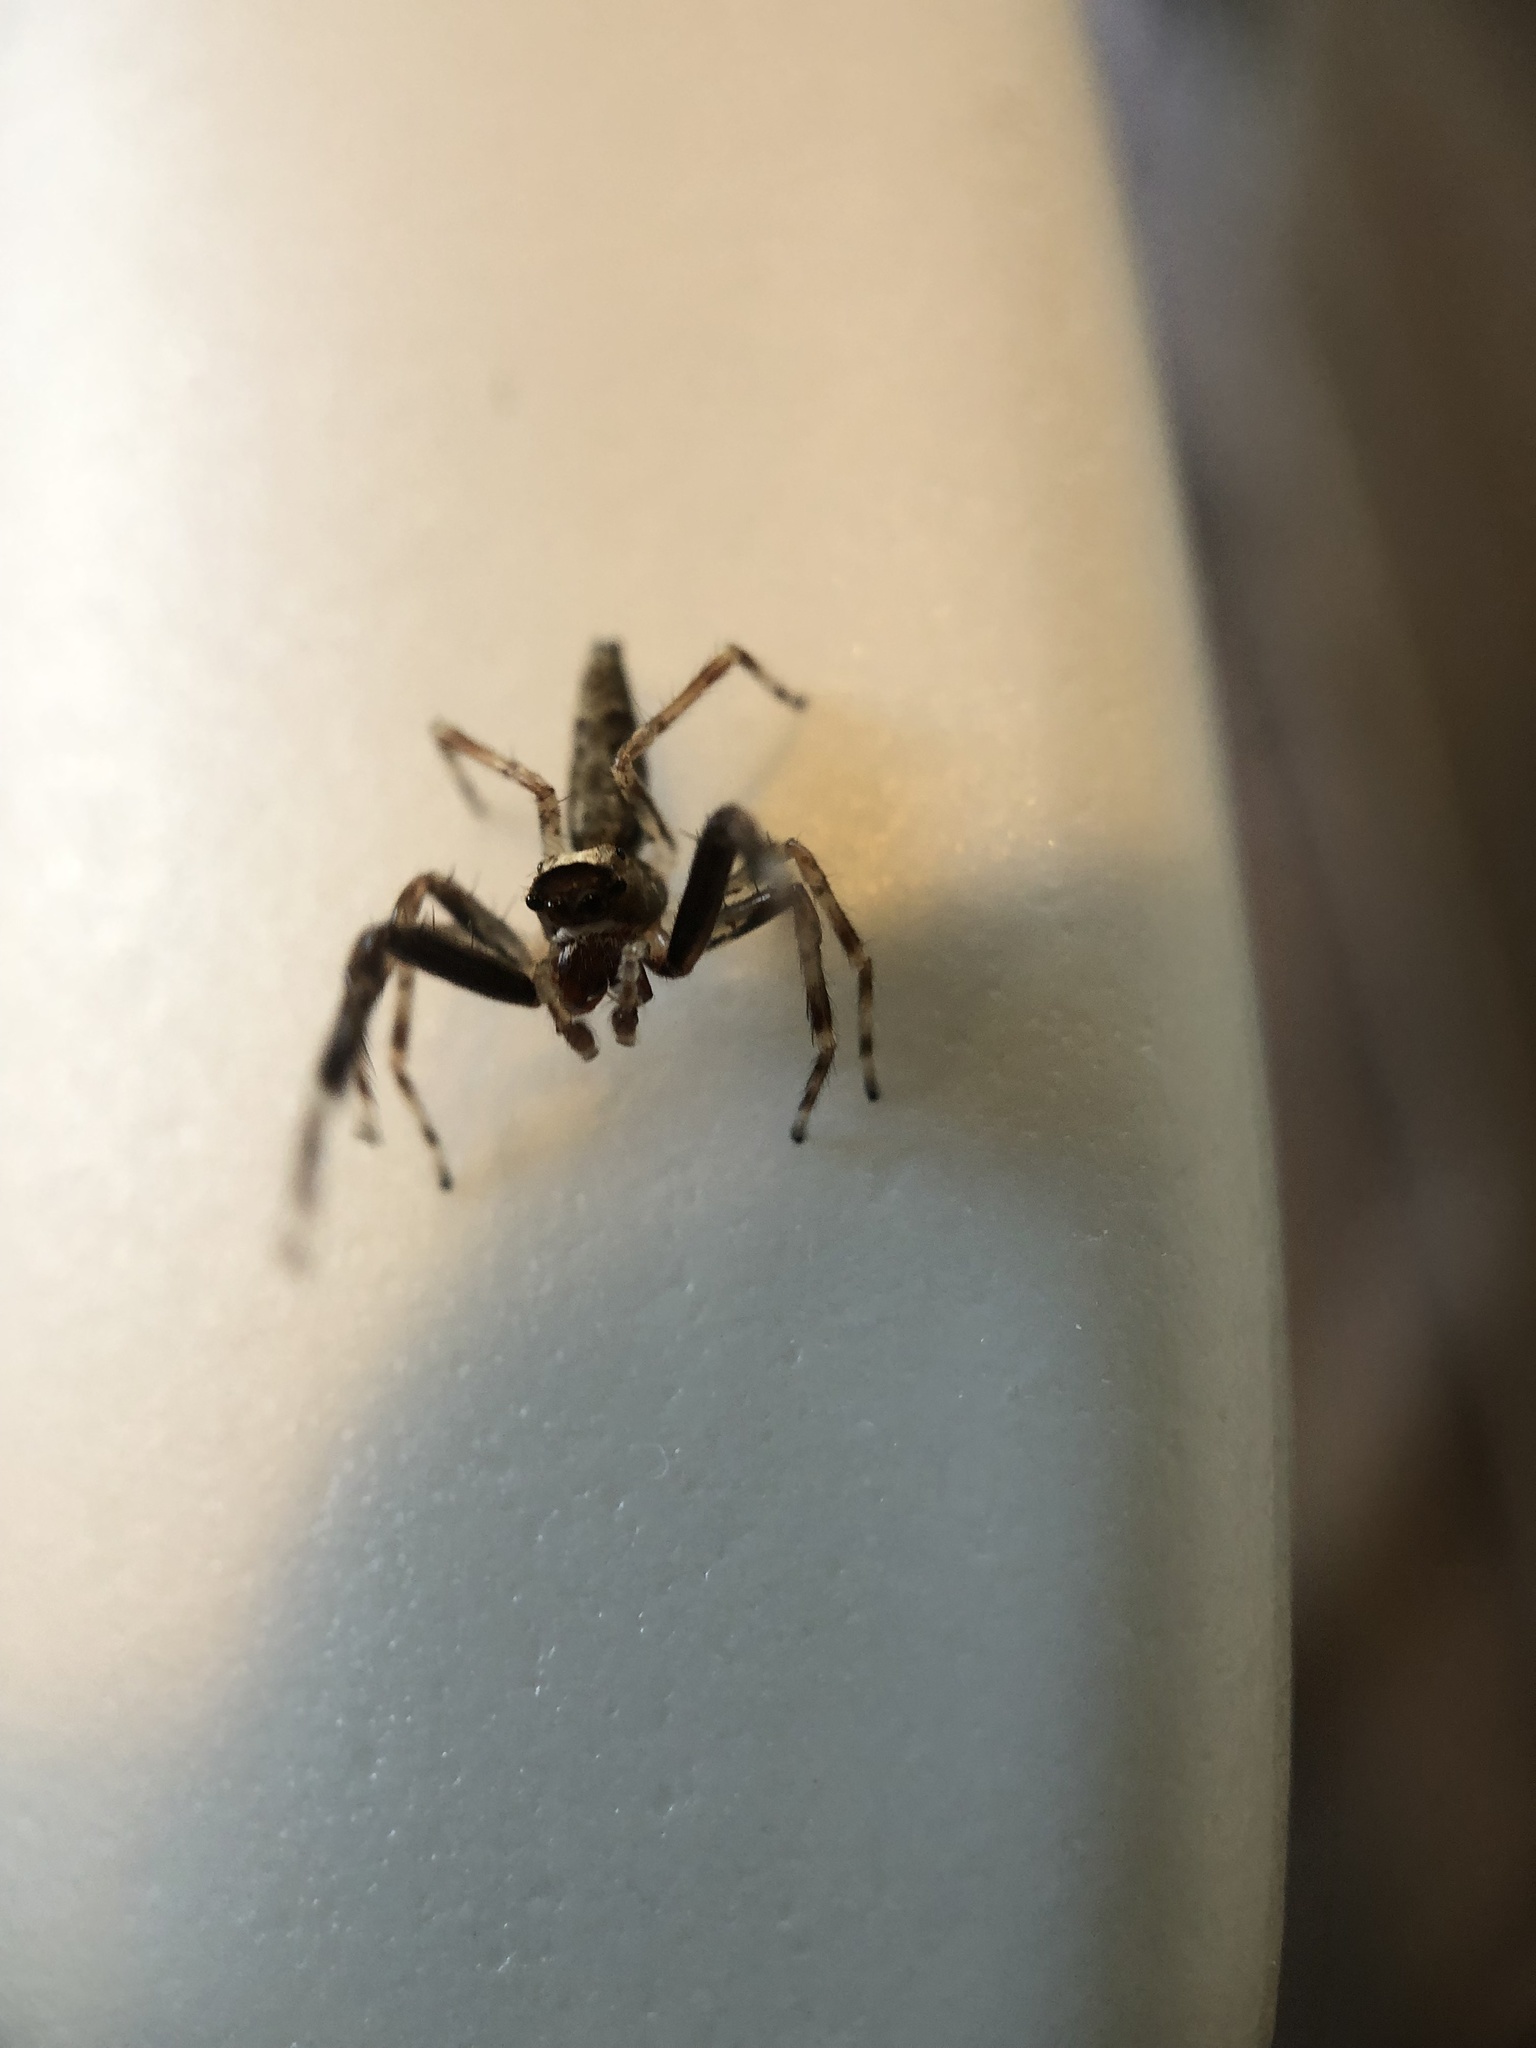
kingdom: Animalia
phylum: Arthropoda
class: Arachnida
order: Araneae
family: Salticidae
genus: Helpis
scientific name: Helpis minitabunda
